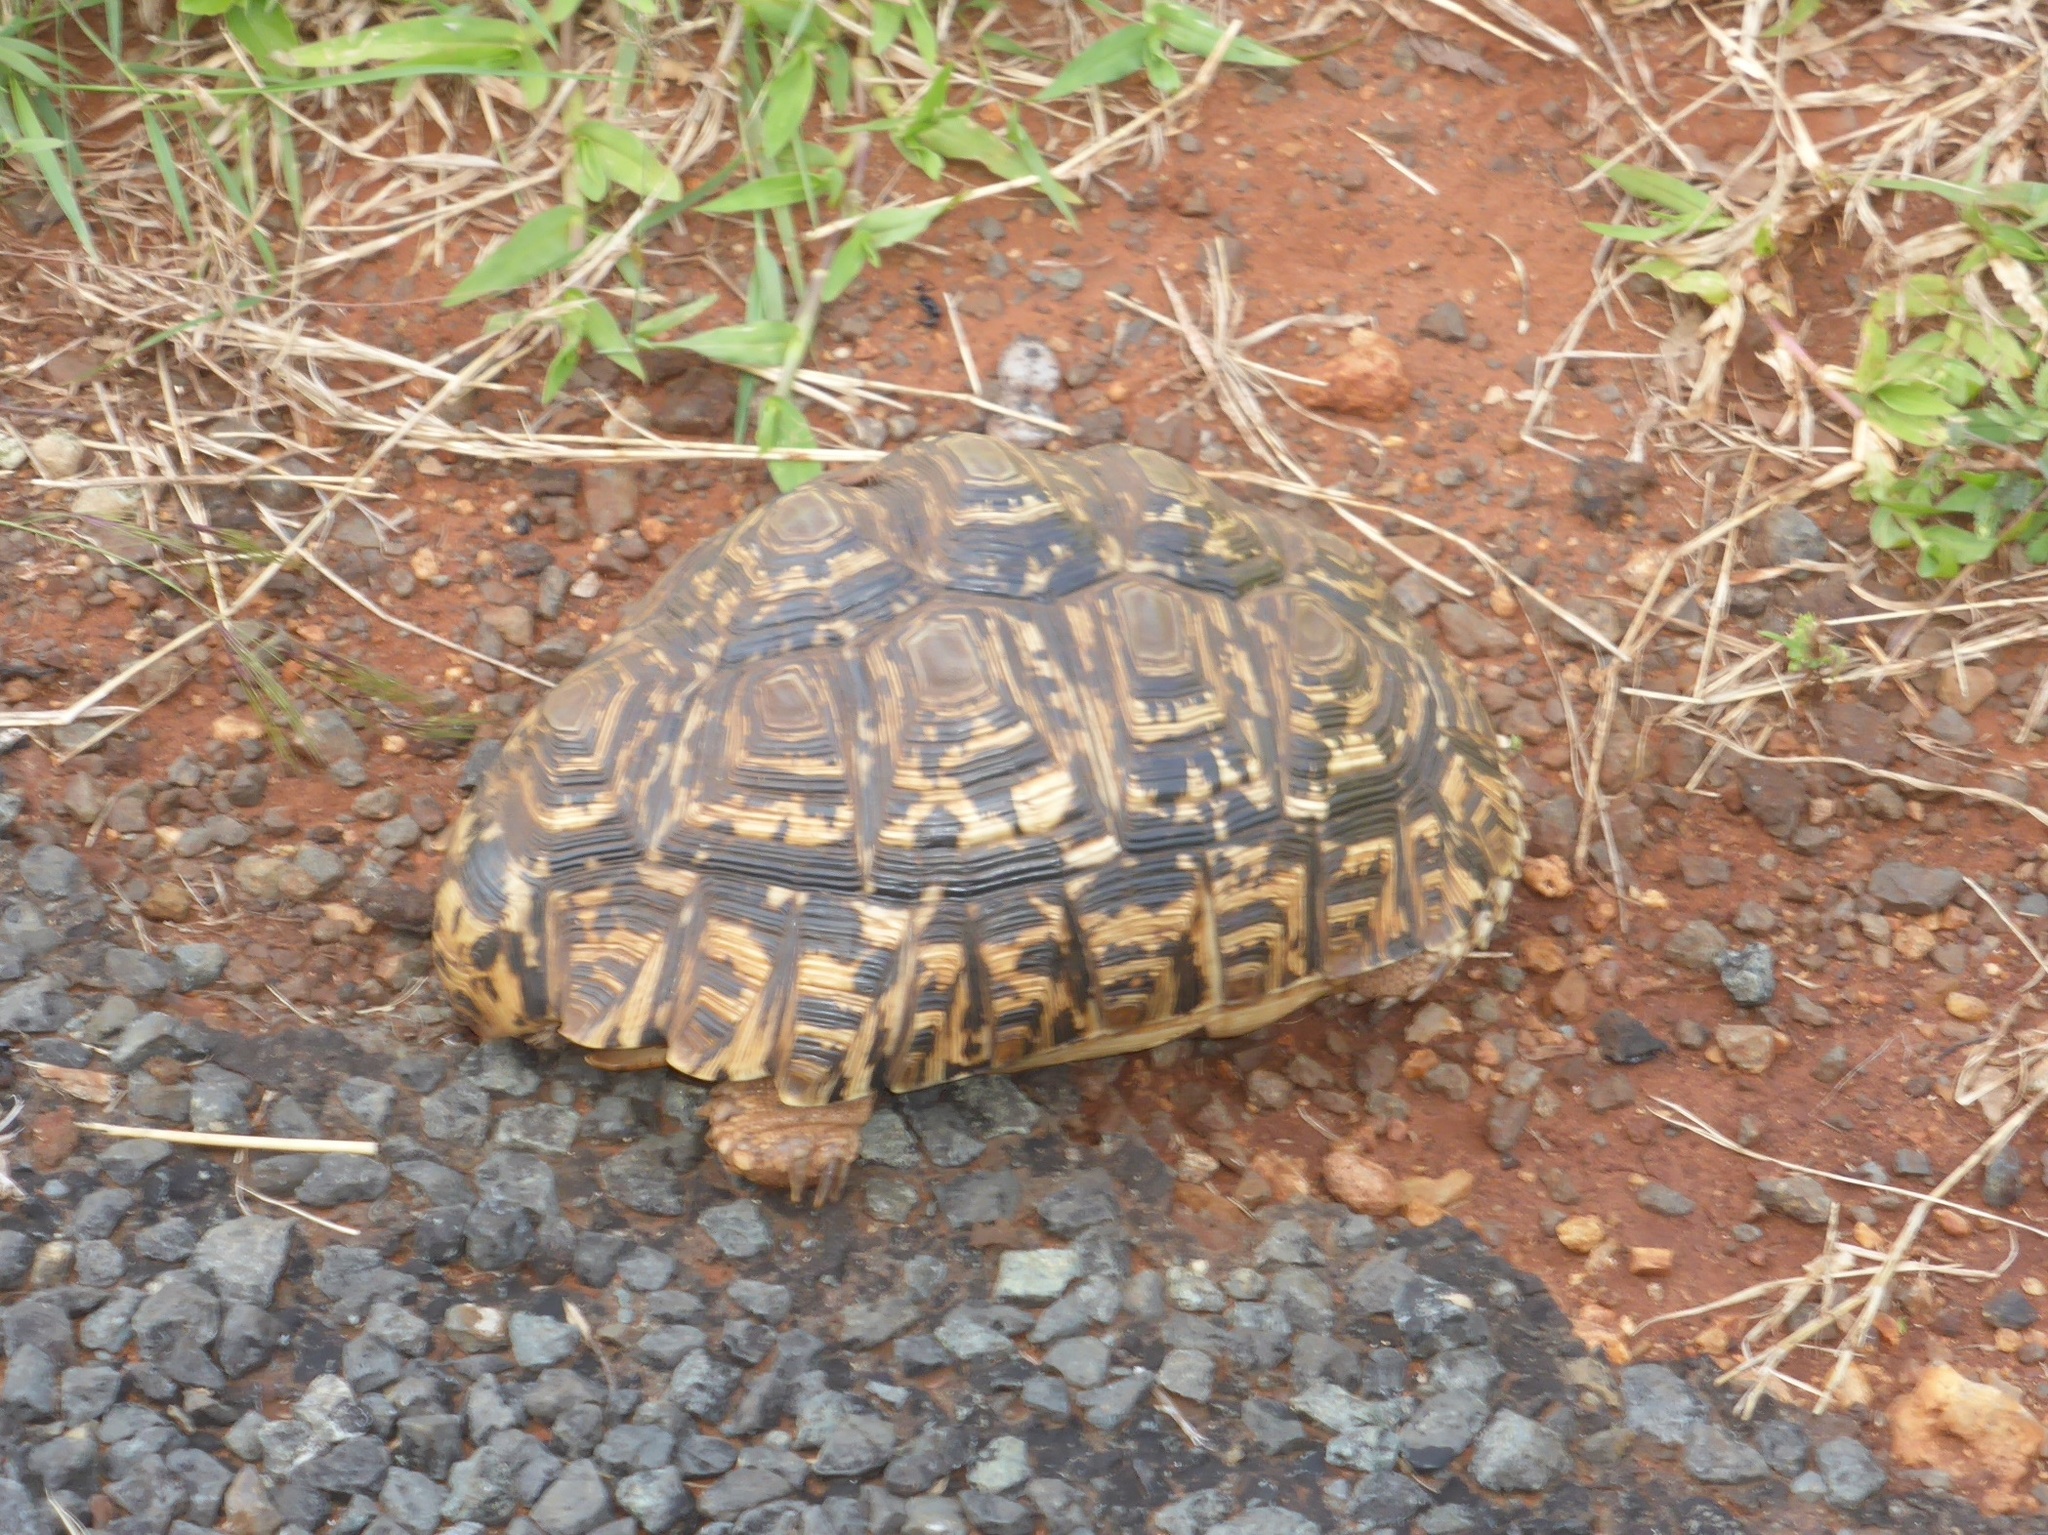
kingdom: Animalia
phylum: Chordata
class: Testudines
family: Testudinidae
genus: Stigmochelys
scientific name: Stigmochelys pardalis
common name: Leopard tortoise
